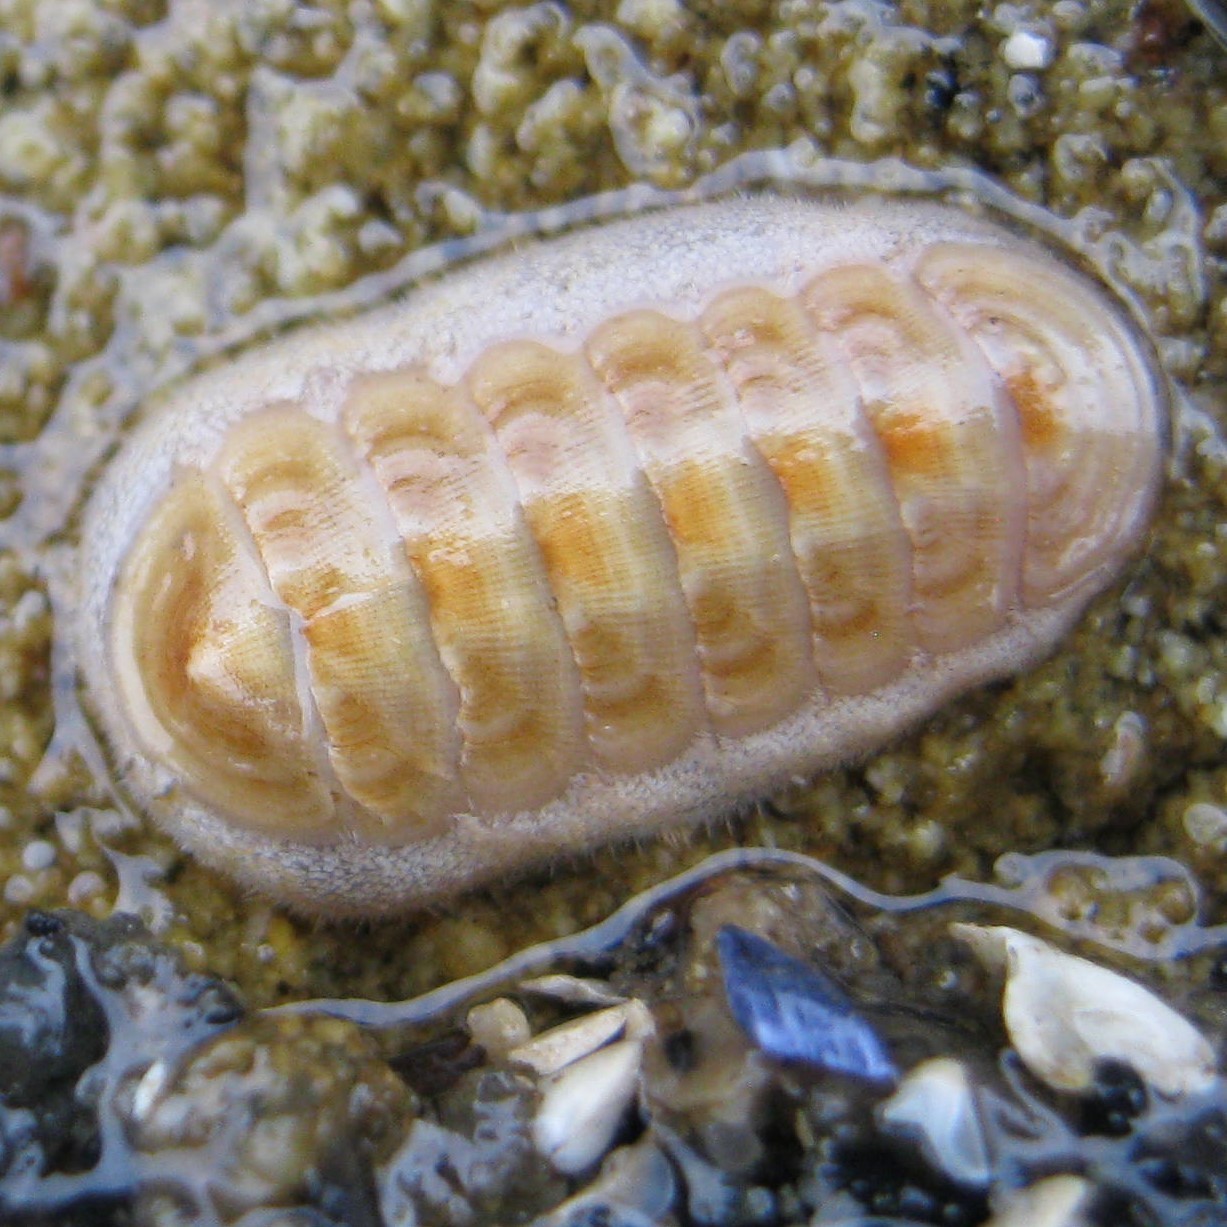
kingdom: Animalia
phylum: Mollusca
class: Polyplacophora
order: Lepidopleurida
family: Leptochitonidae
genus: Leptochiton
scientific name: Leptochiton inquinatus
